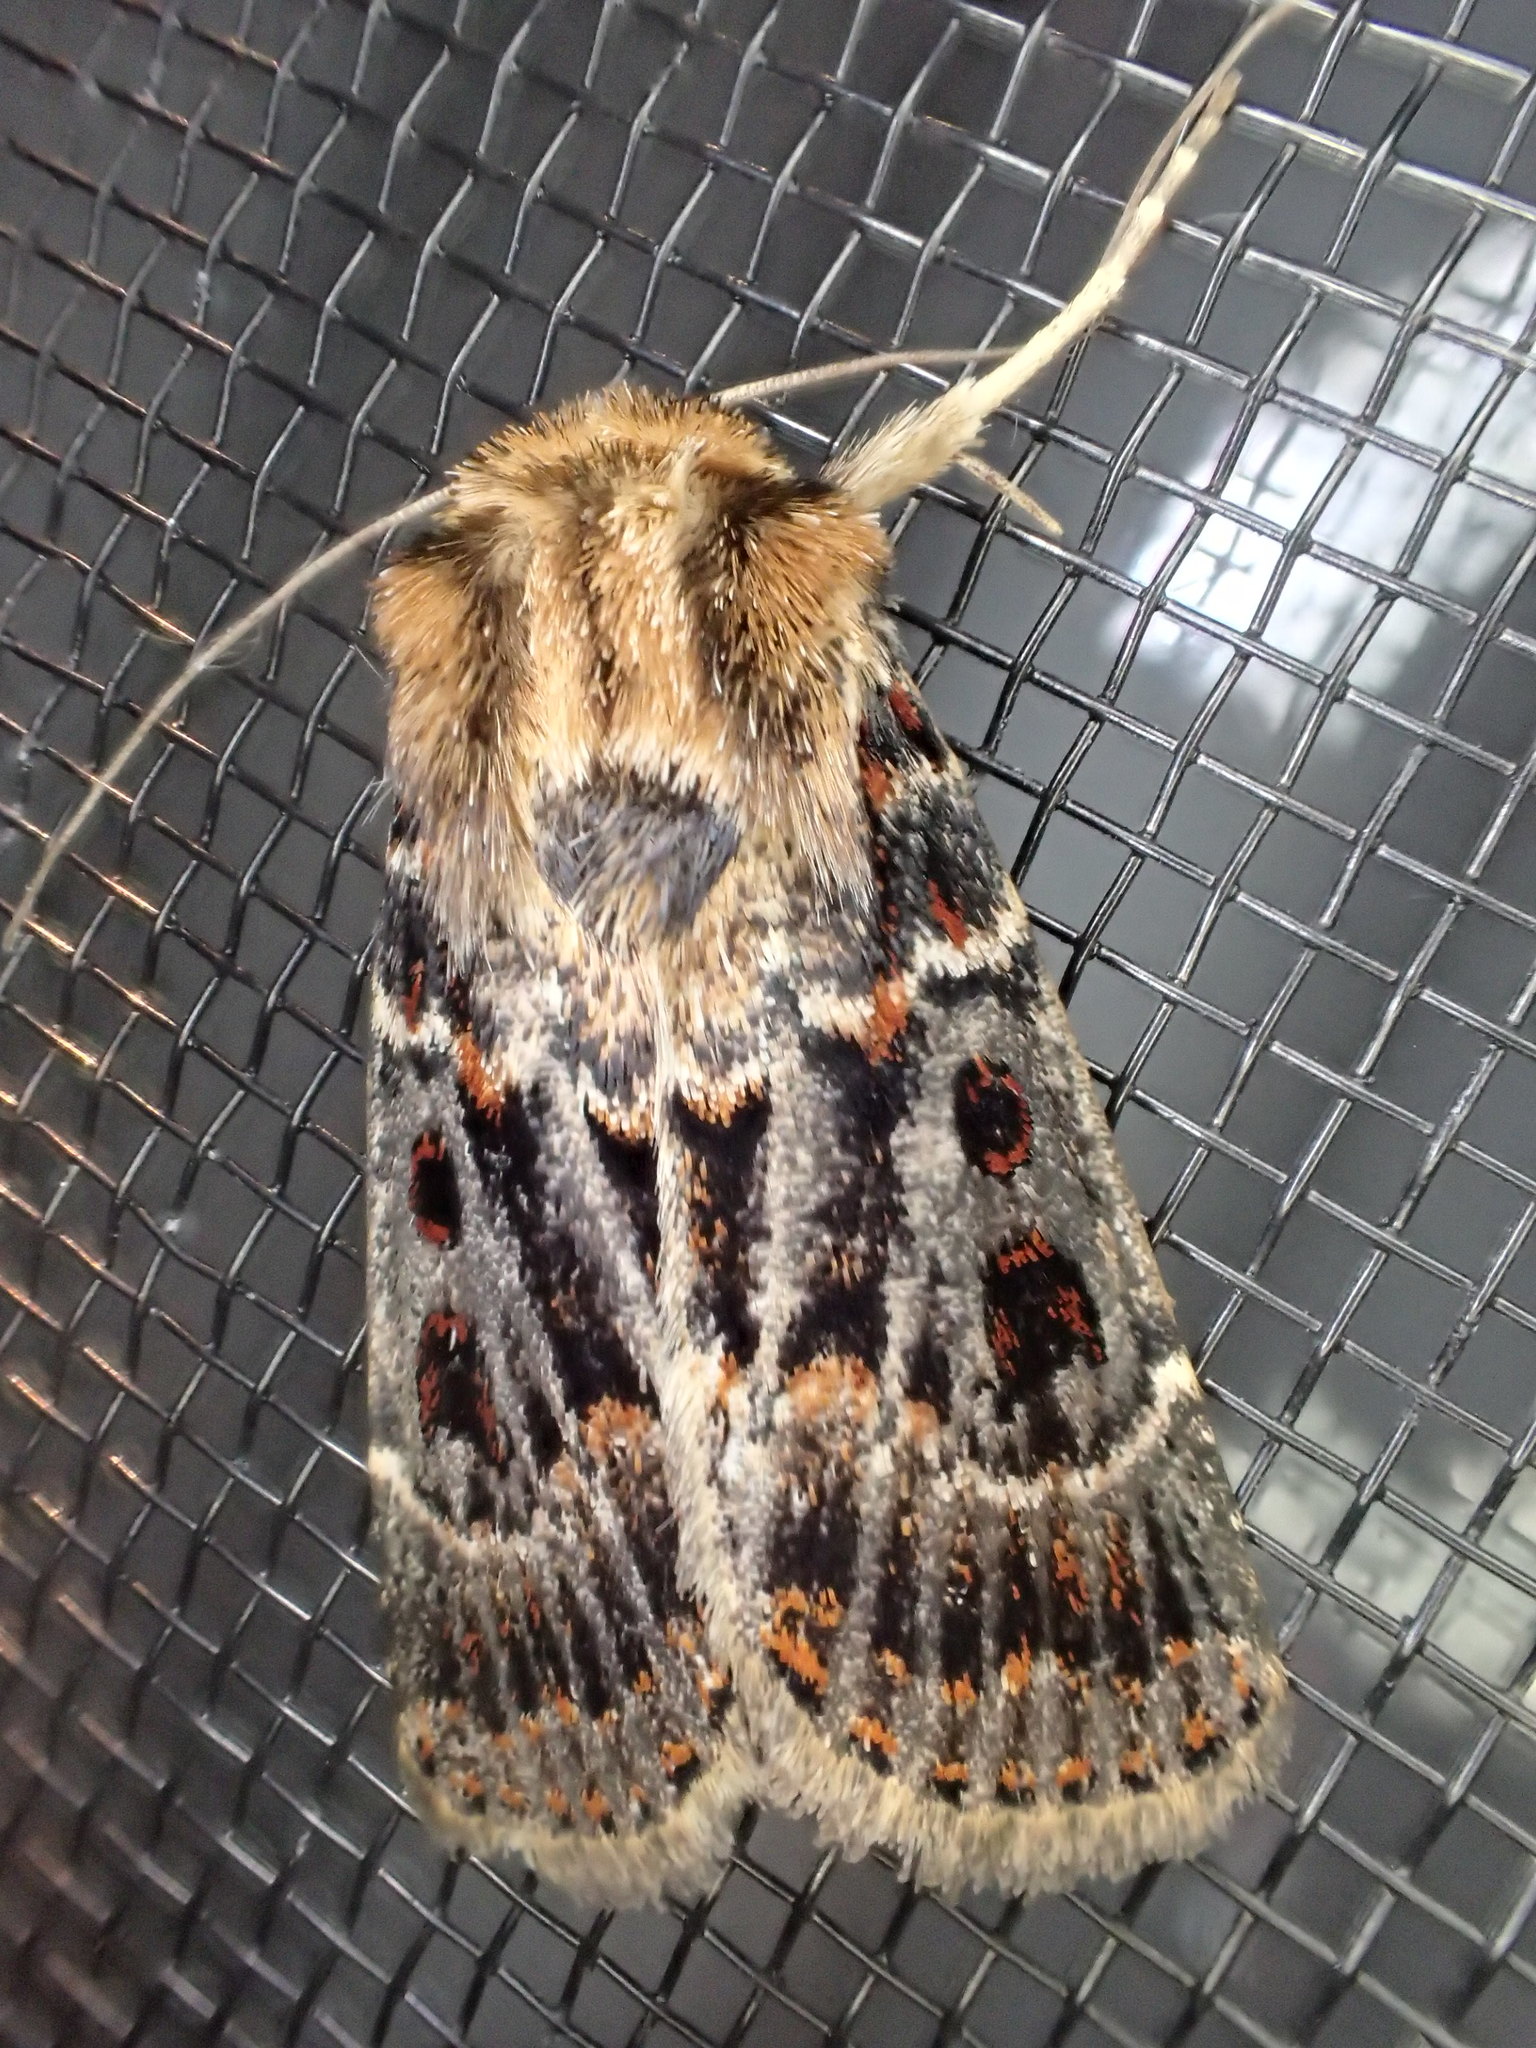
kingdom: Animalia
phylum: Arthropoda
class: Insecta
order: Lepidoptera
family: Noctuidae
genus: Proteuxoa
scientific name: Proteuxoa sanguinipuncta
